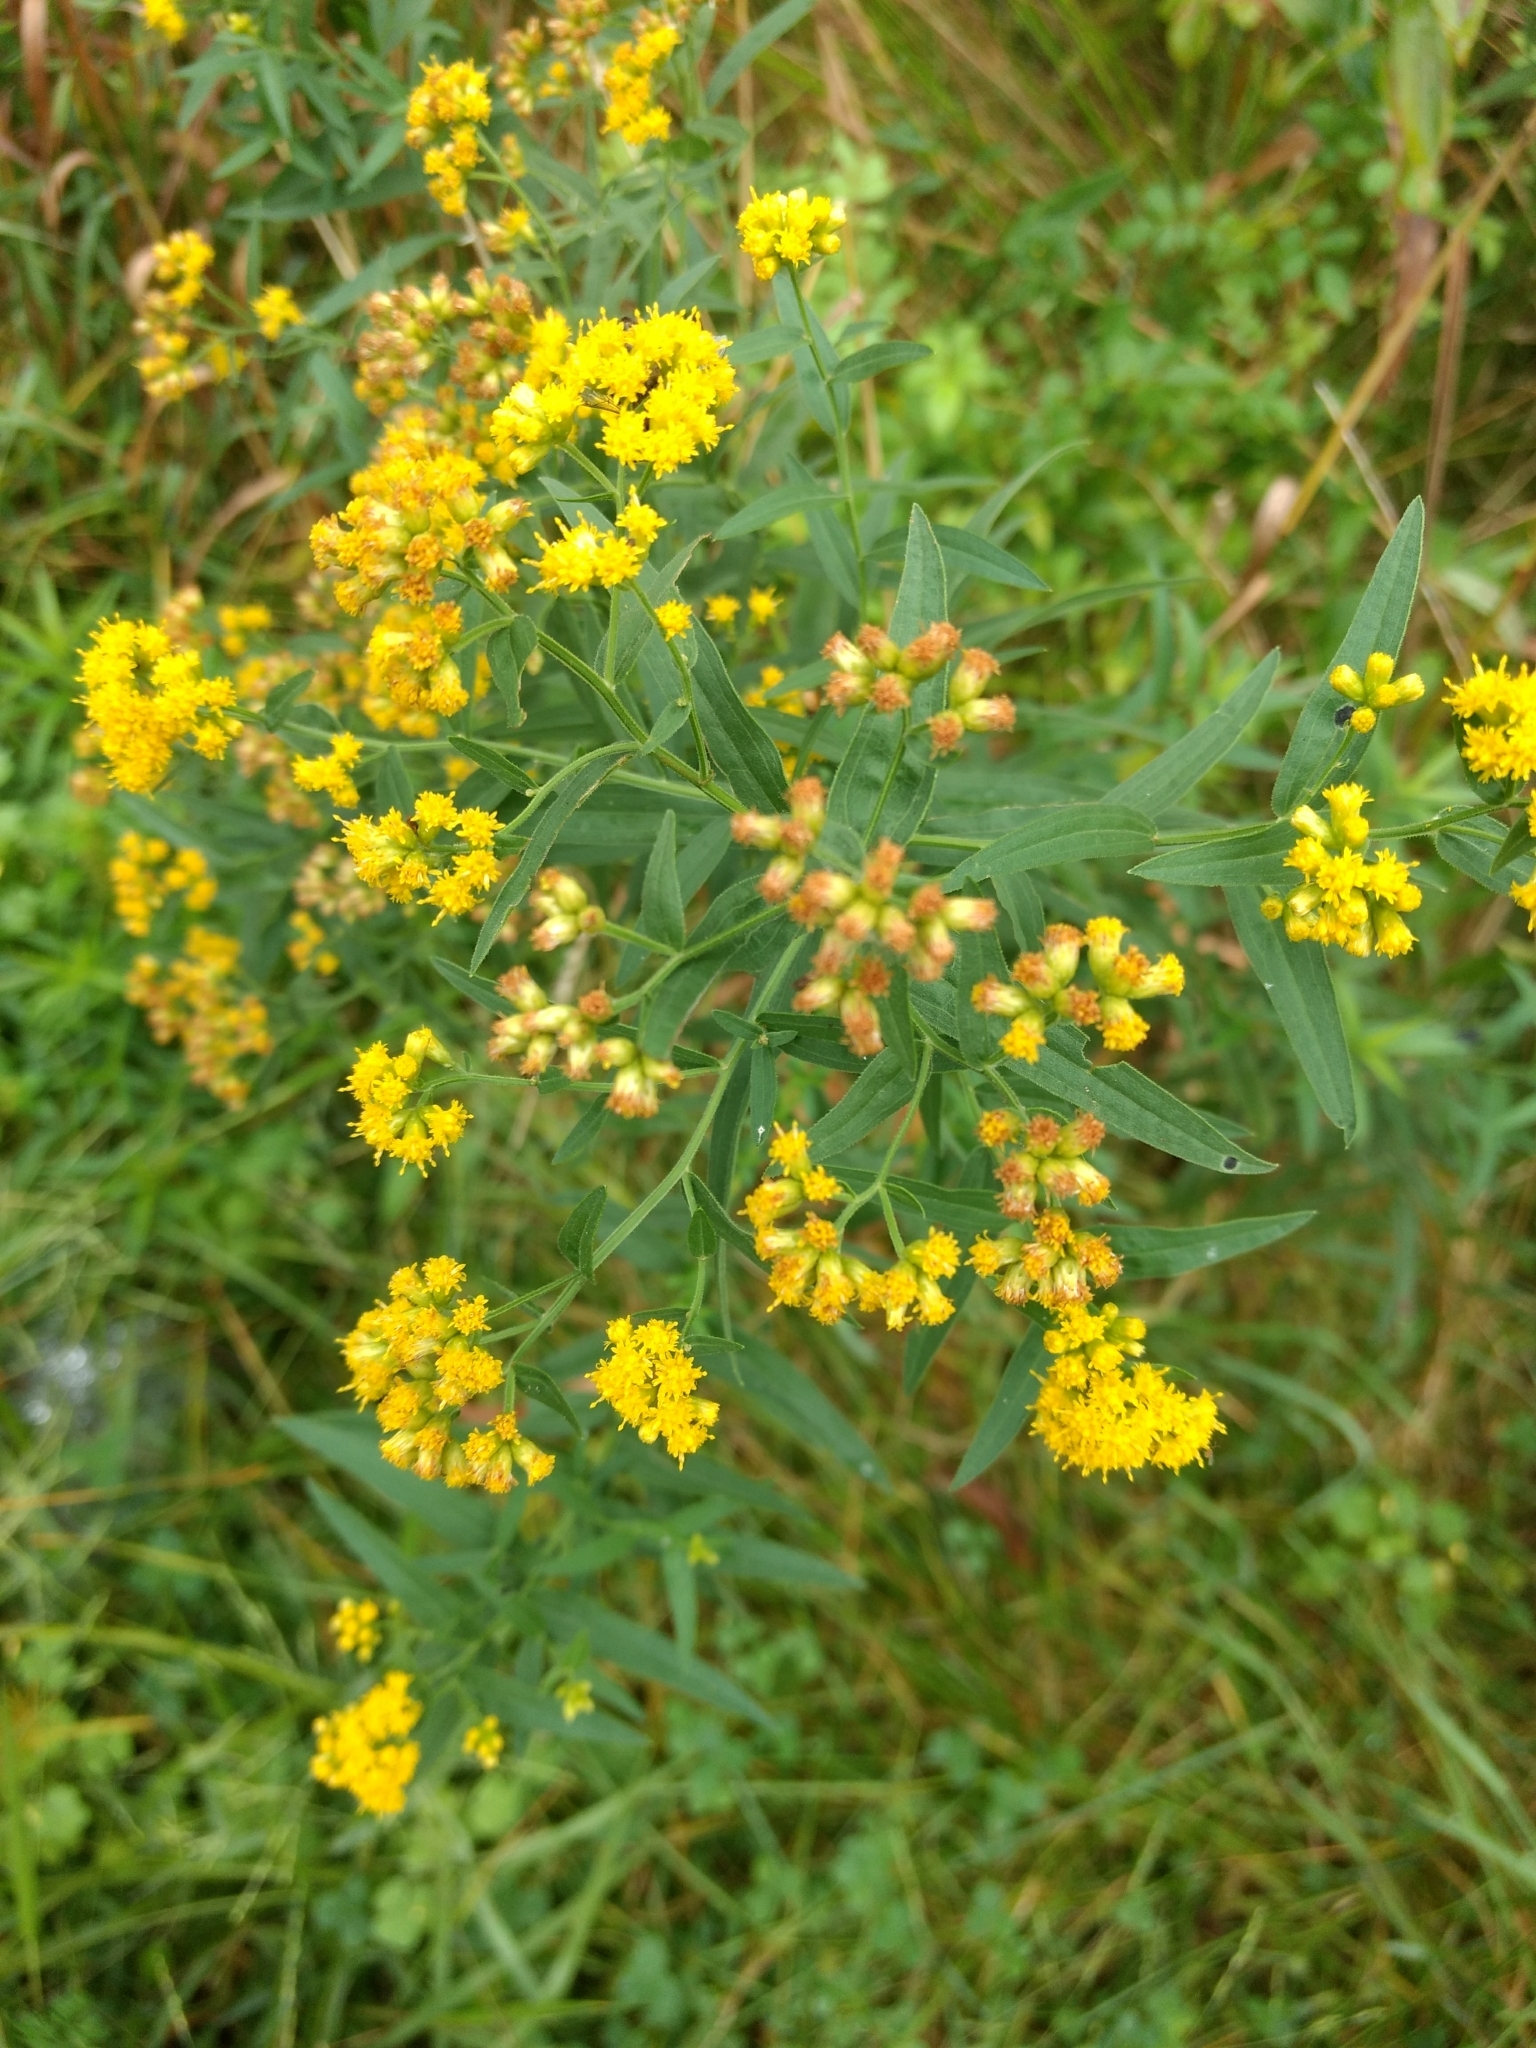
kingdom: Plantae
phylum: Tracheophyta
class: Magnoliopsida
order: Asterales
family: Asteraceae
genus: Euthamia
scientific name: Euthamia graminifolia
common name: Common goldentop
